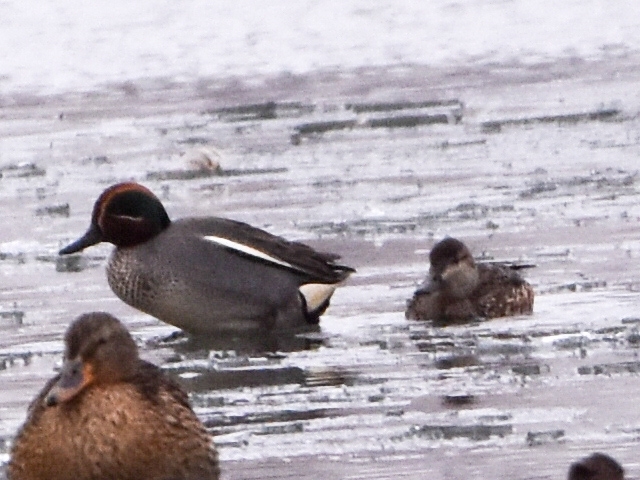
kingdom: Animalia
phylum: Chordata
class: Aves
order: Anseriformes
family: Anatidae
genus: Anas
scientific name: Anas crecca
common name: Eurasian teal
